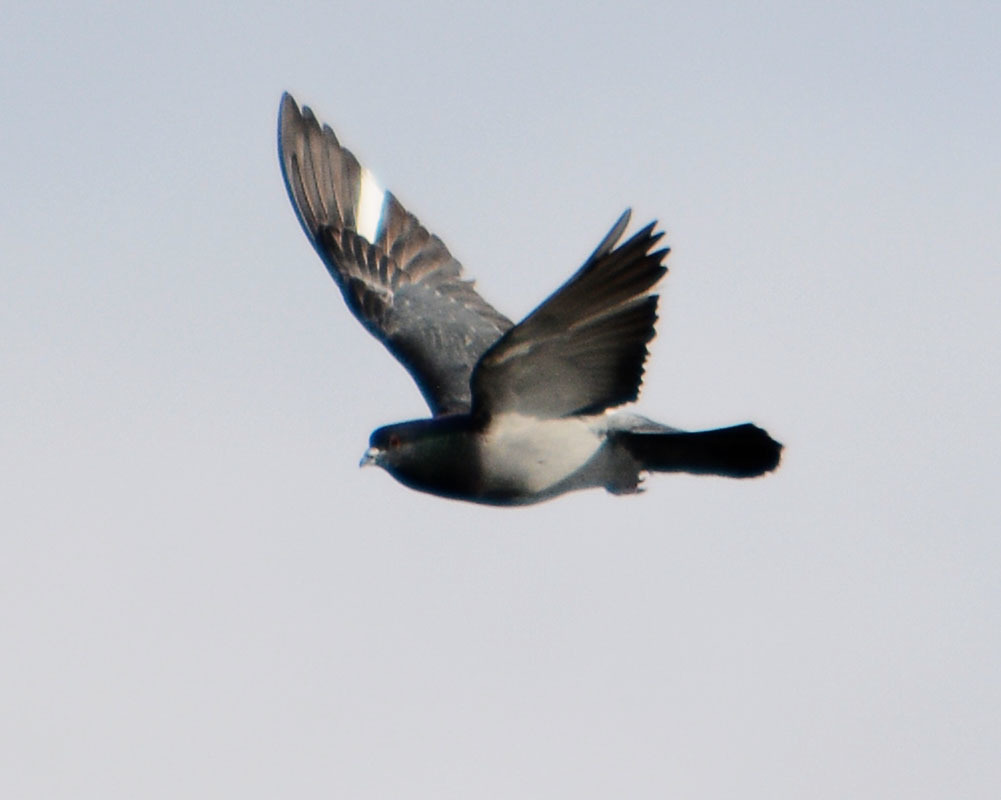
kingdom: Animalia
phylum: Chordata
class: Aves
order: Columbiformes
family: Columbidae
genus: Columba
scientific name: Columba livia
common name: Rock pigeon
